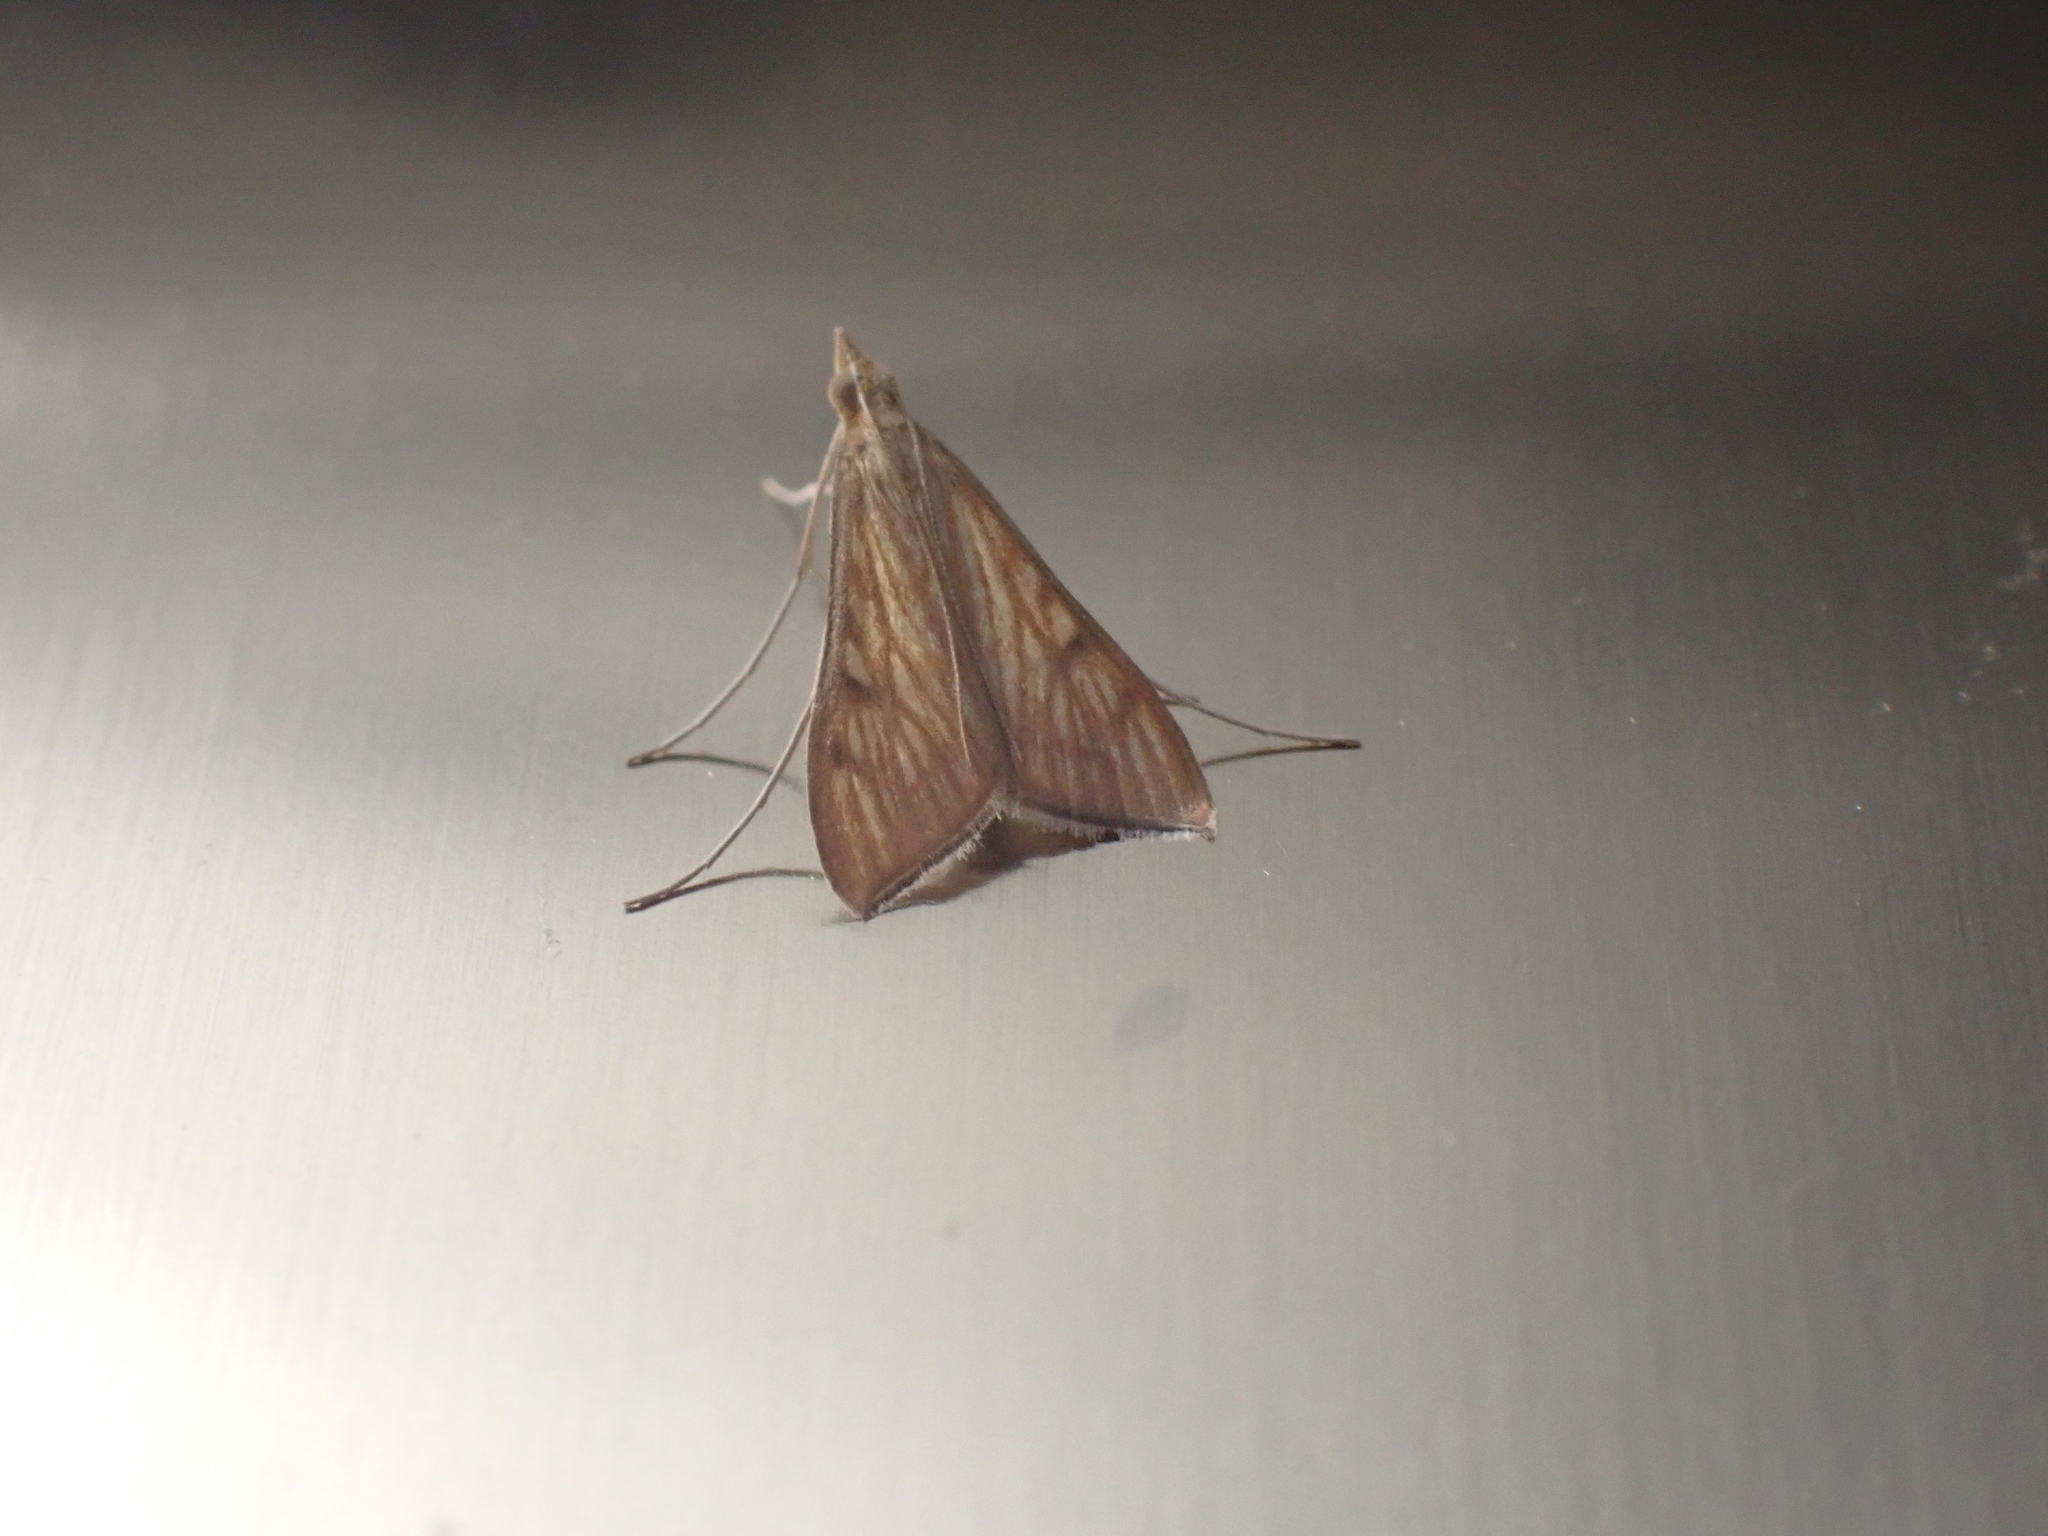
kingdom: Animalia
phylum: Arthropoda
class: Insecta
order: Lepidoptera
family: Crambidae
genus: Antigastra
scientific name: Antigastra catalaunalis
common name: Spanish dot
